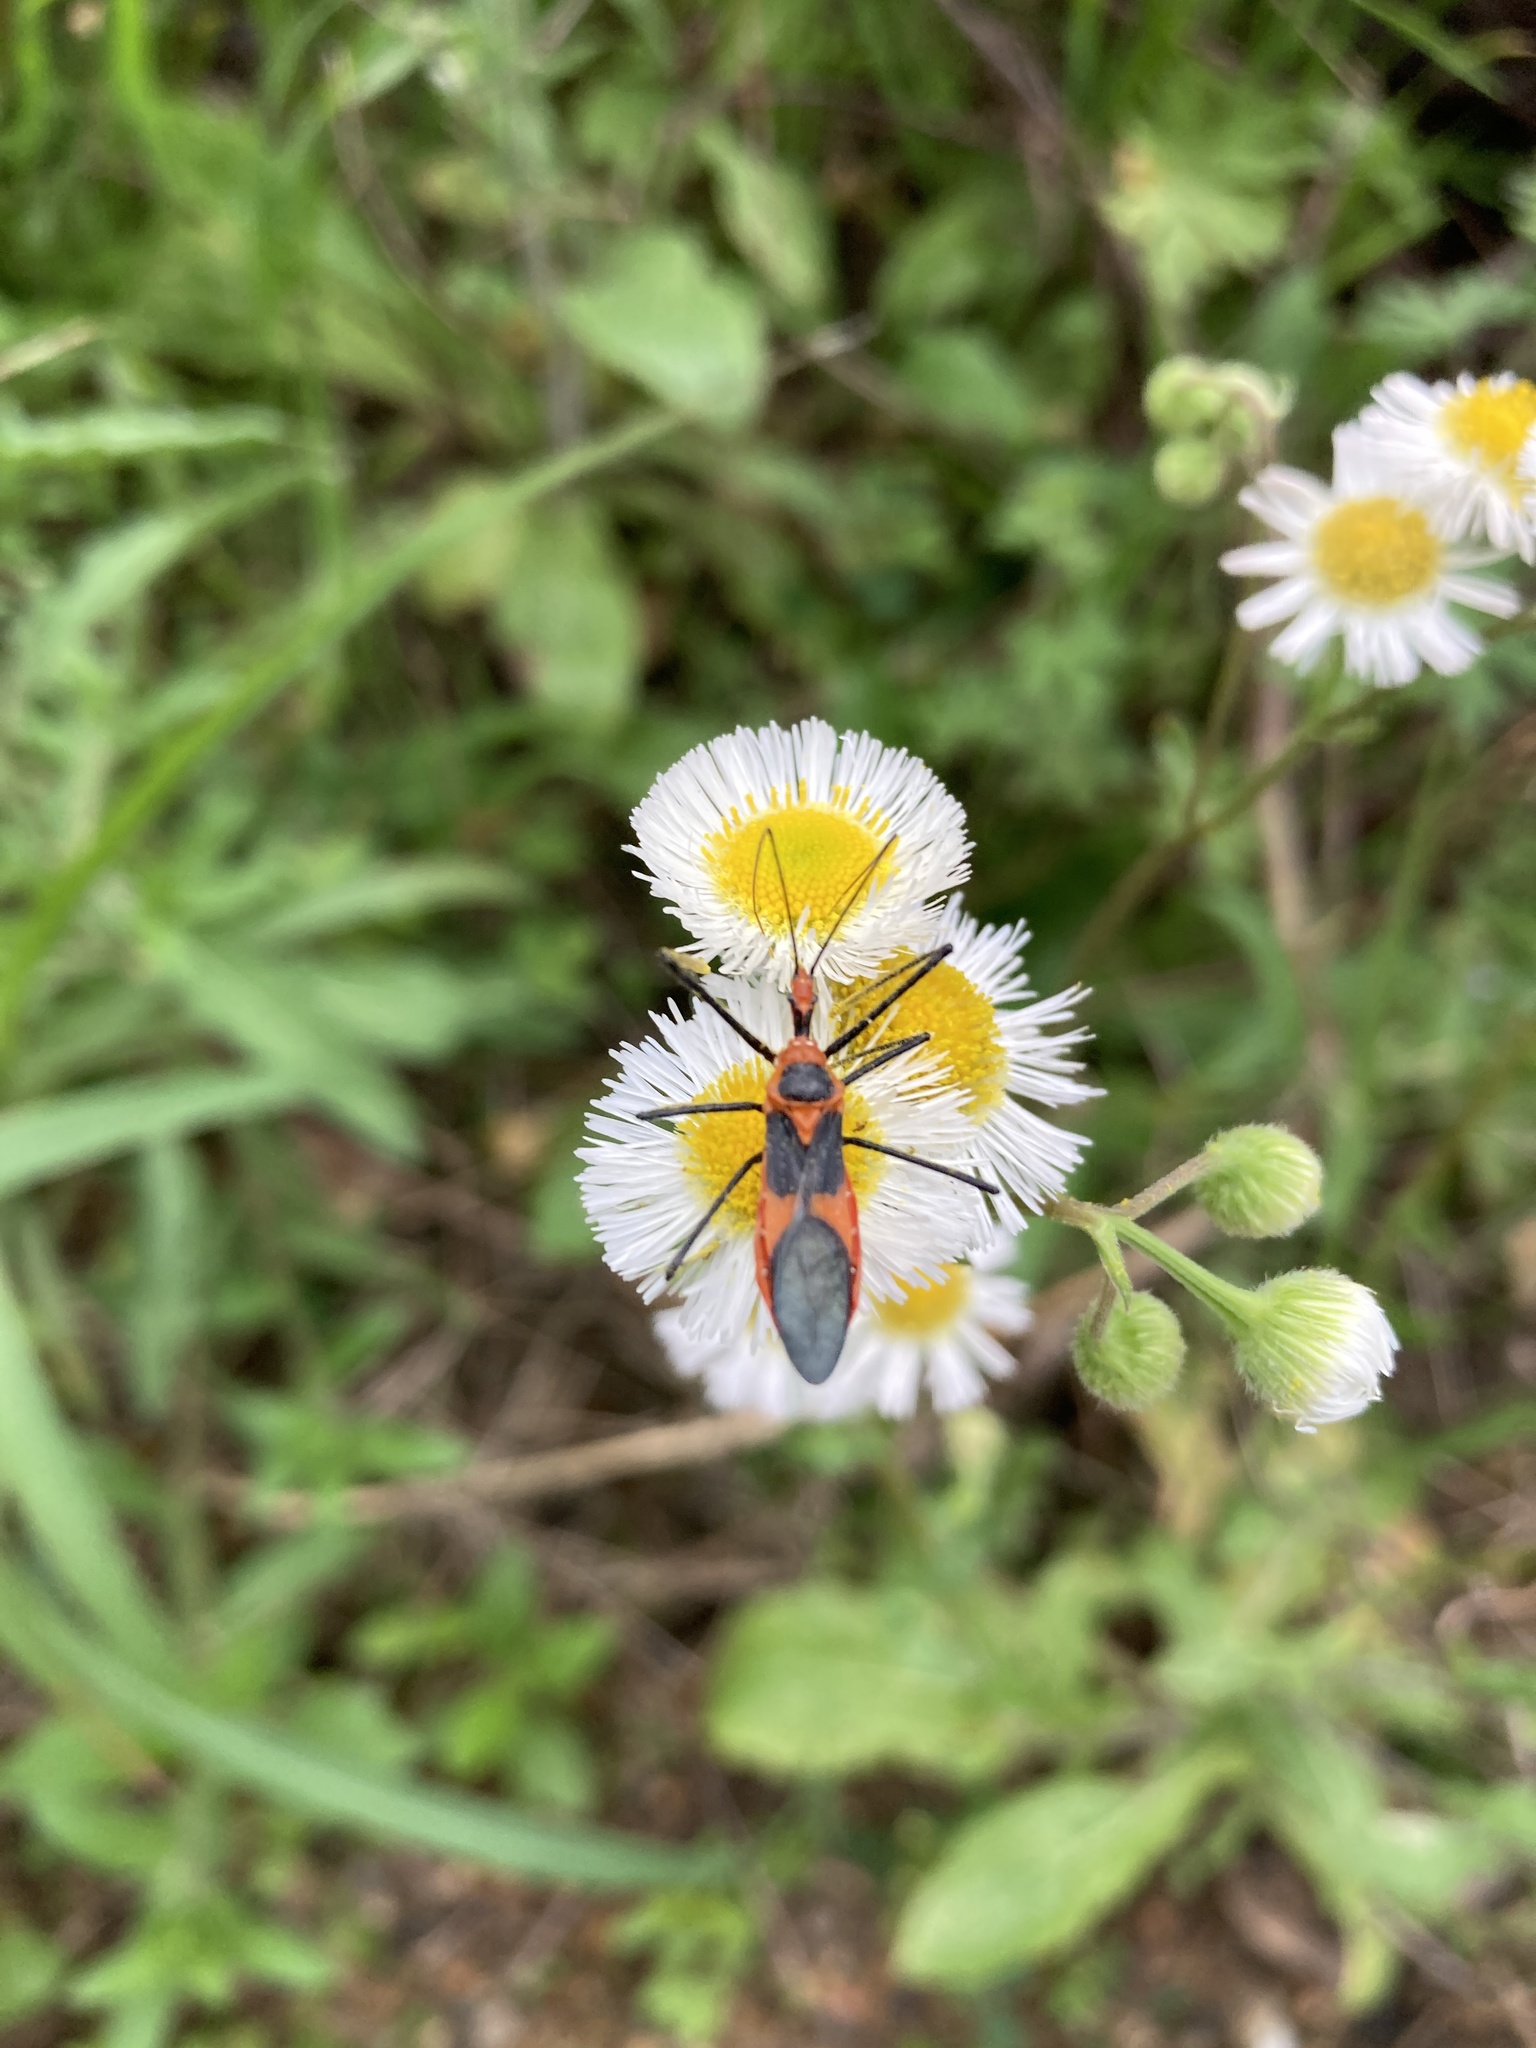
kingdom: Animalia
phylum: Arthropoda
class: Insecta
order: Hemiptera
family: Reduviidae
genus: Zelus
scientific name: Zelus longipes
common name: Milkweed assassin bug
